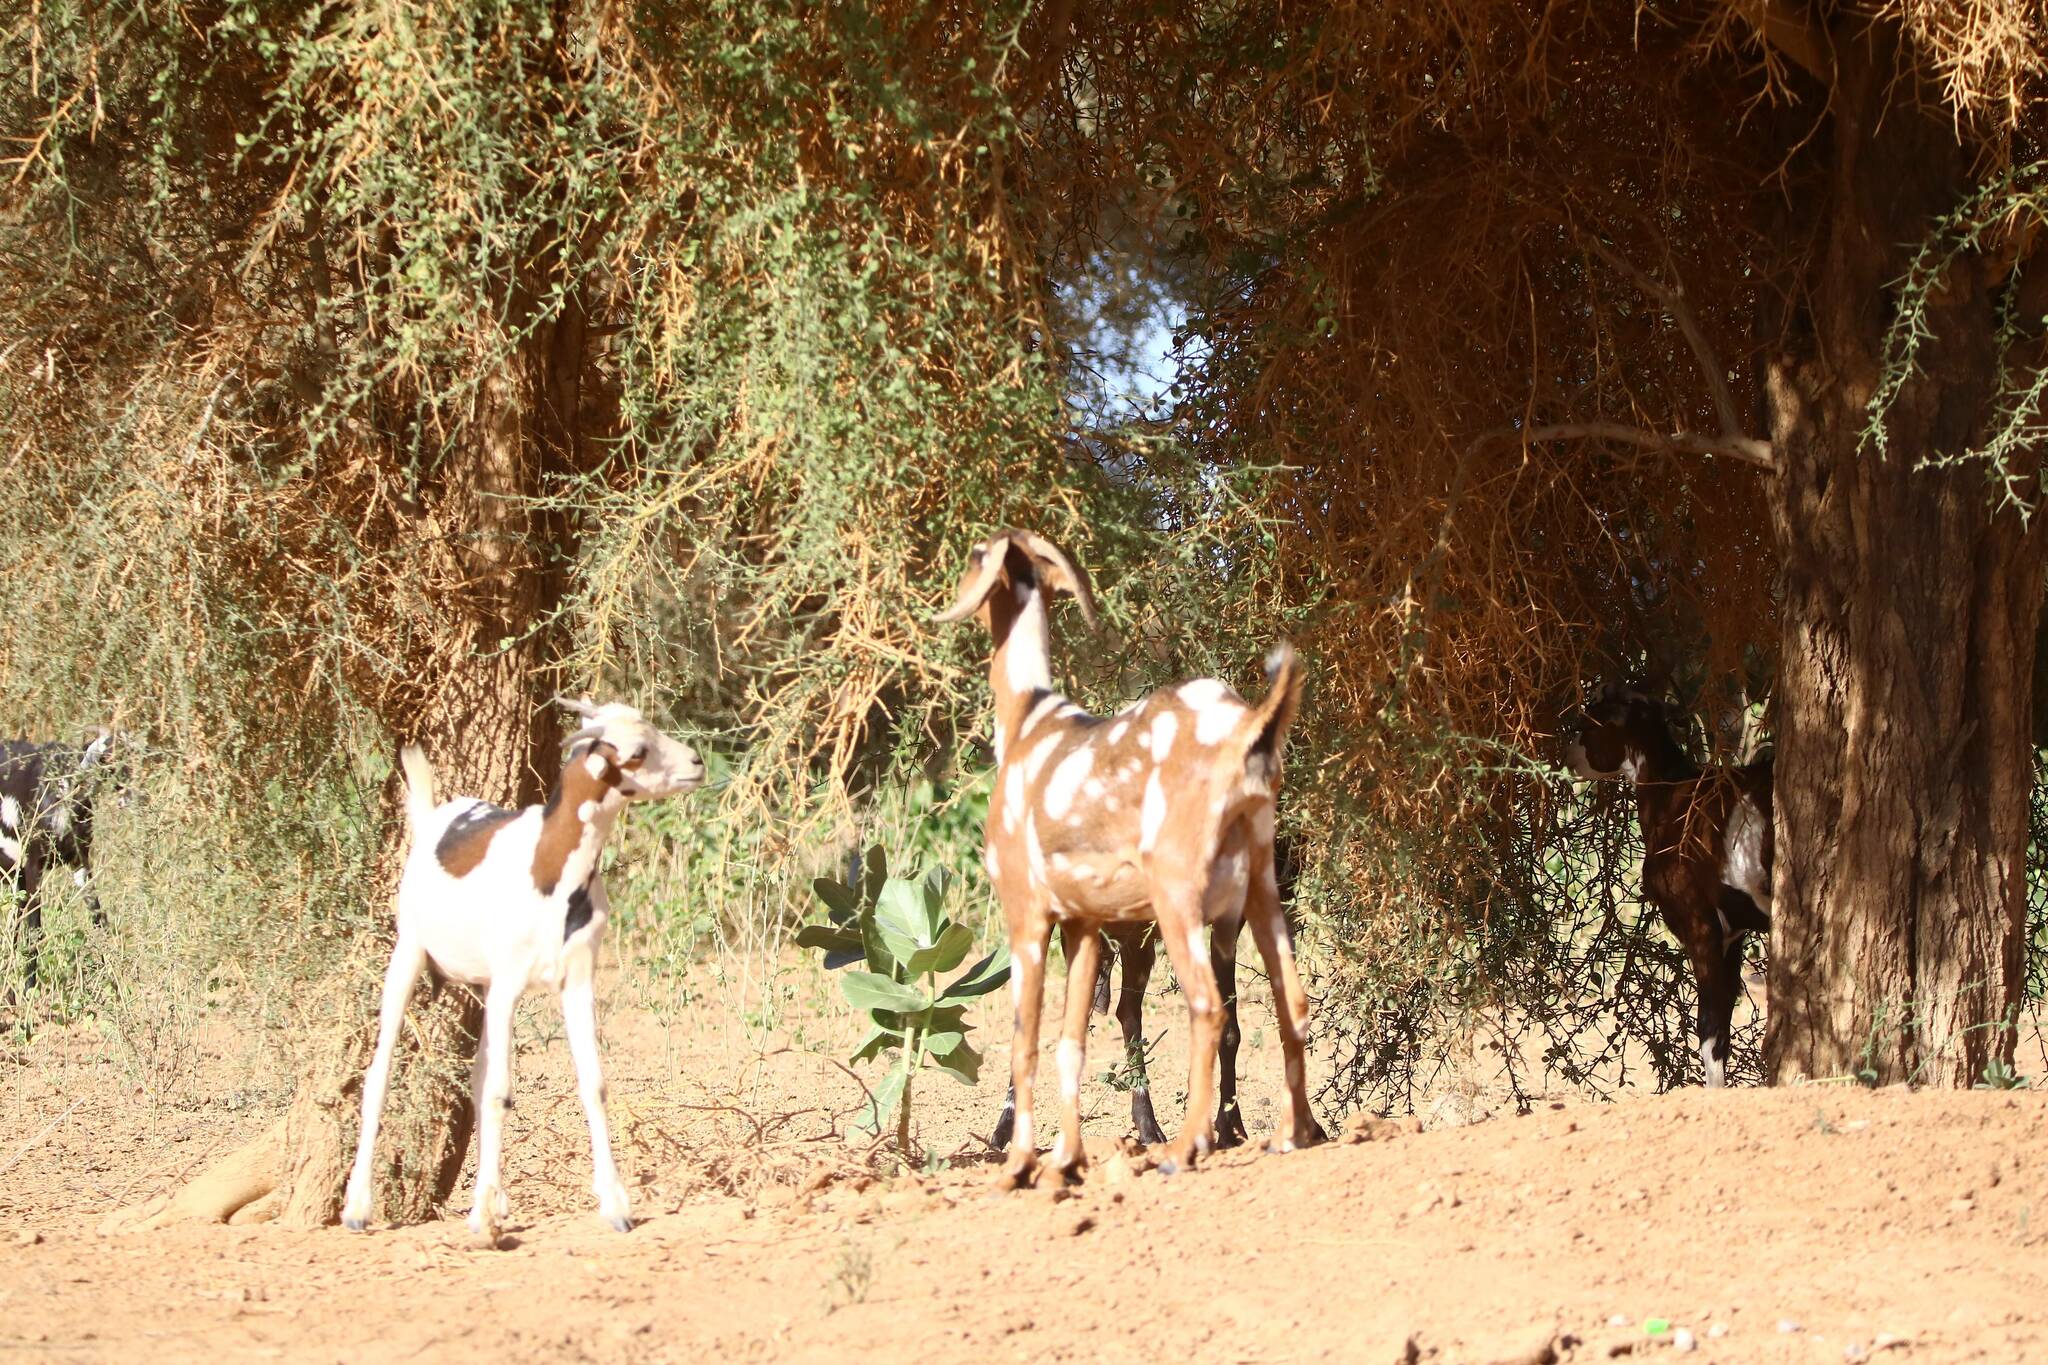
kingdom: Animalia
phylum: Chordata
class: Mammalia
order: Artiodactyla
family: Bovidae
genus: Capra
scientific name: Capra hircus
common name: Domestic goat
